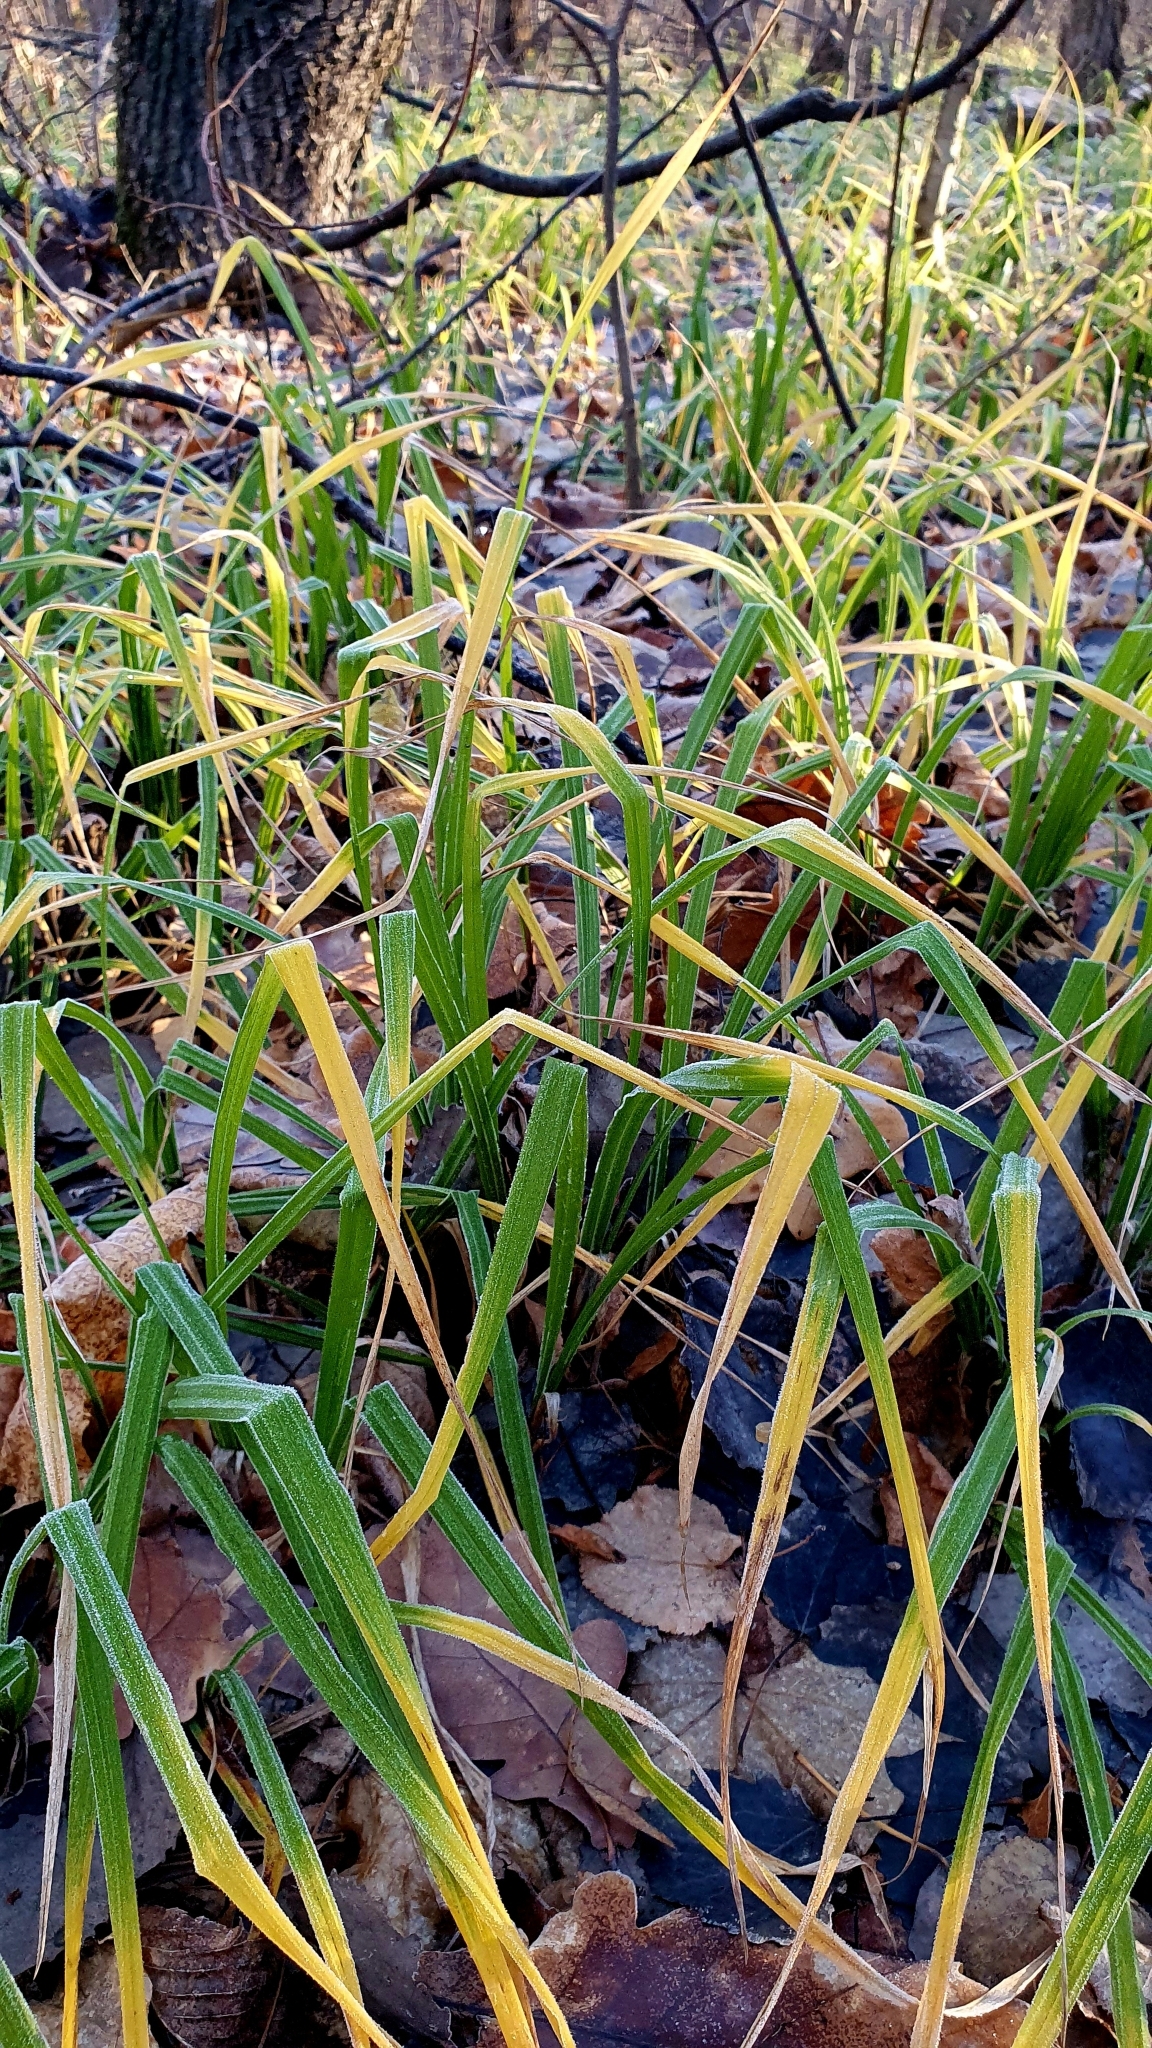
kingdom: Plantae
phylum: Tracheophyta
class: Liliopsida
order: Poales
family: Cyperaceae
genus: Carex
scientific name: Carex pilosa
